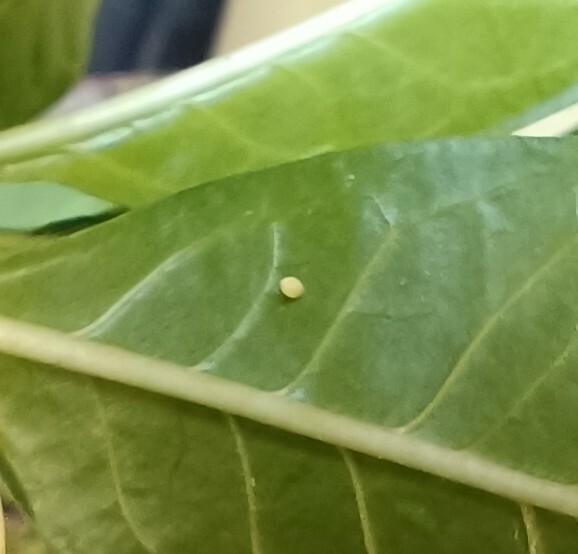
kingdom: Animalia
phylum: Arthropoda
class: Insecta
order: Lepidoptera
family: Nymphalidae
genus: Danaus
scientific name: Danaus plexippus
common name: Monarch
